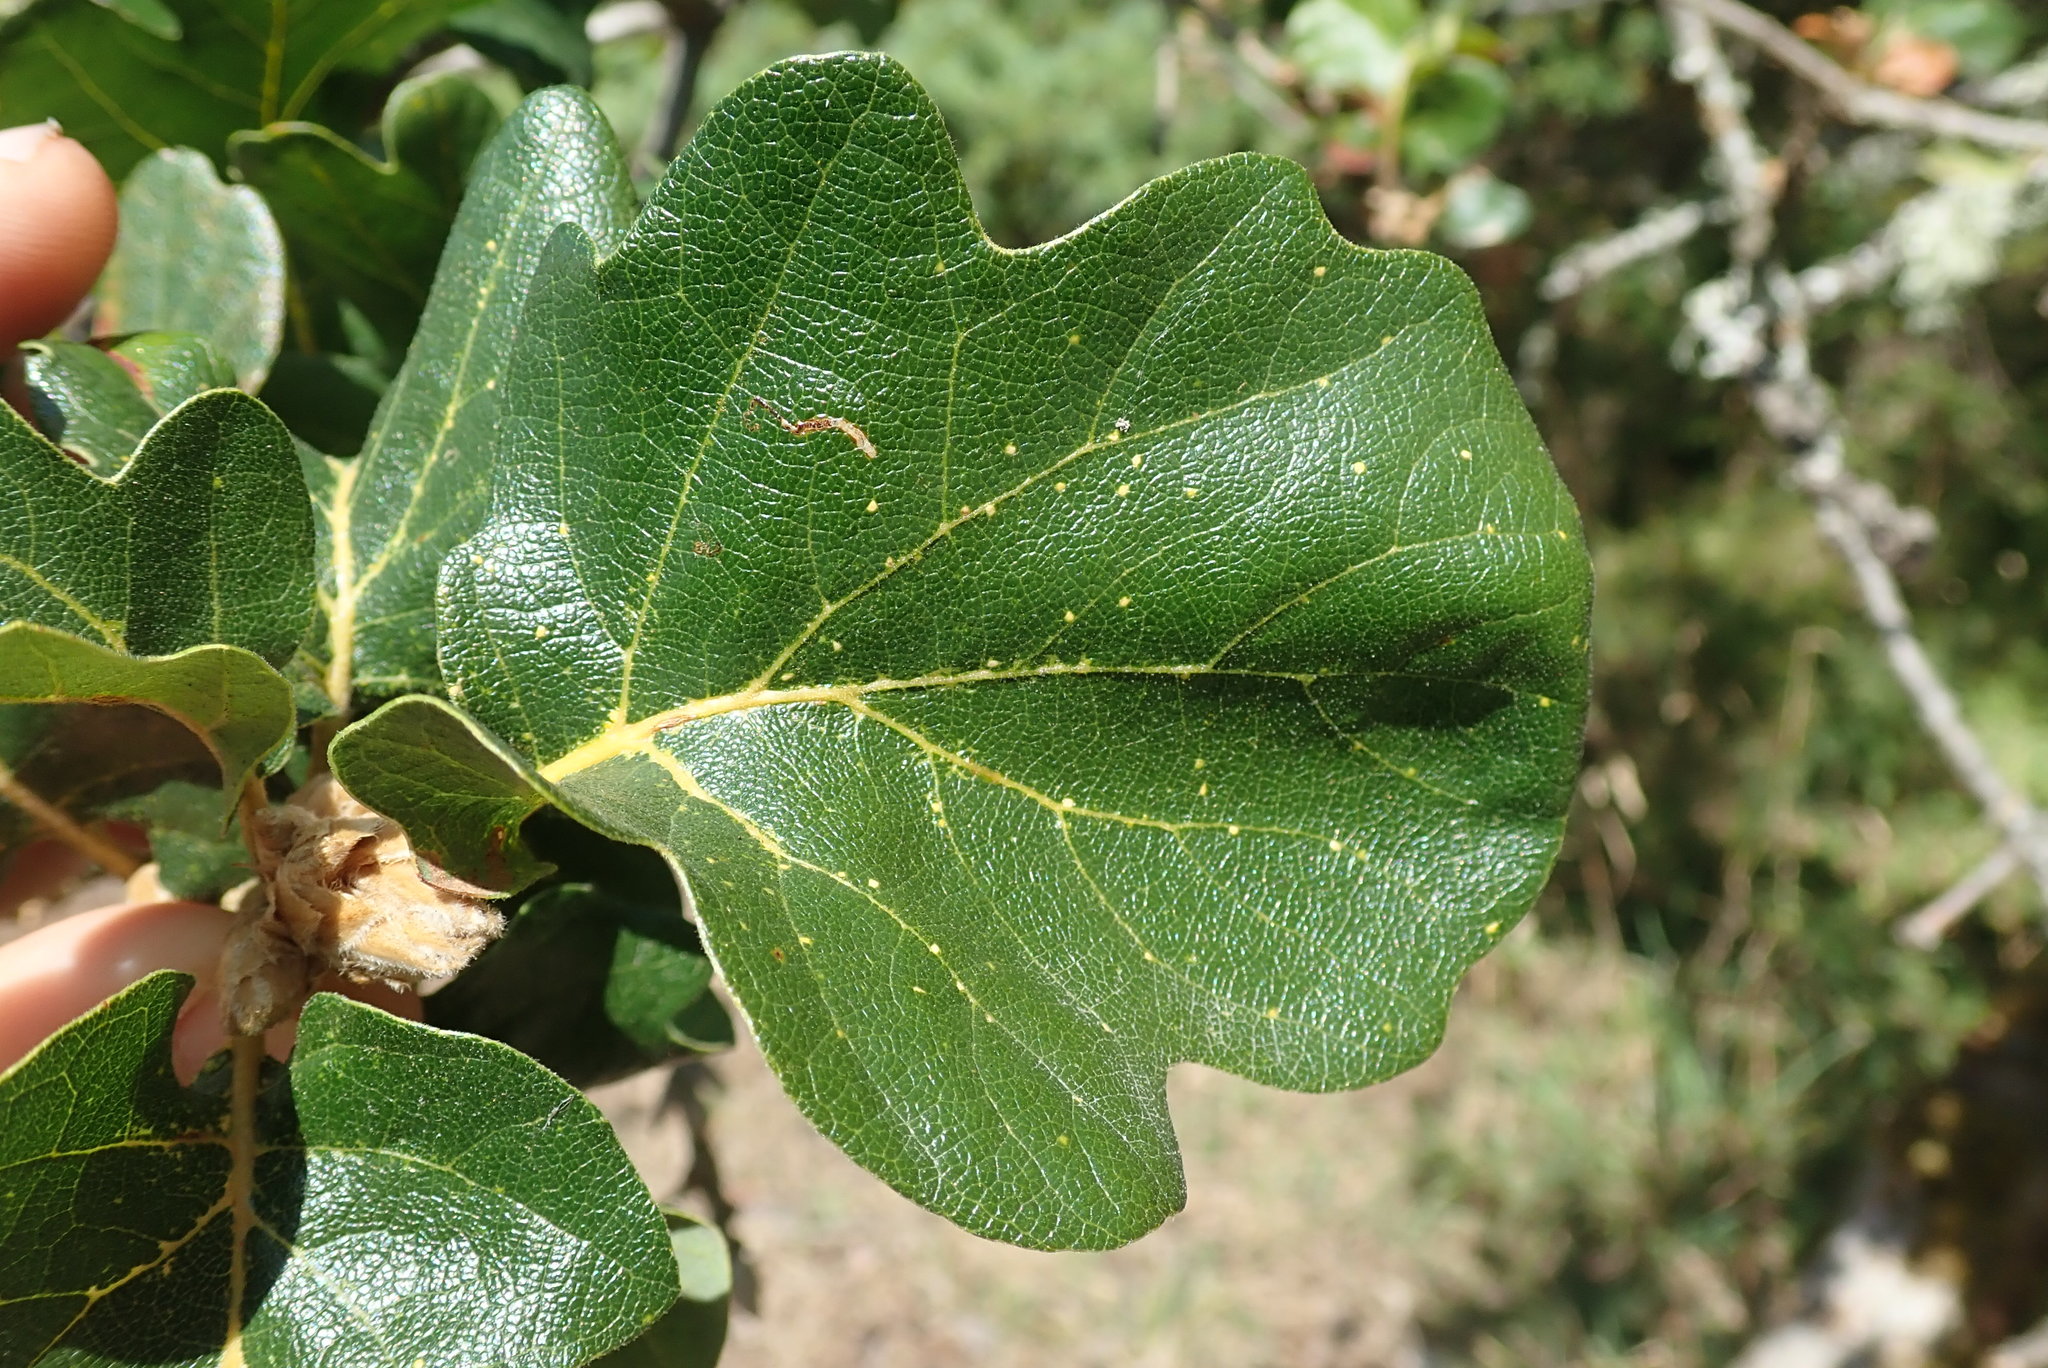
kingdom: Plantae
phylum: Tracheophyta
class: Magnoliopsida
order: Fagales
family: Fagaceae
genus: Quercus
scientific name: Quercus garryana
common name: Garry oak
